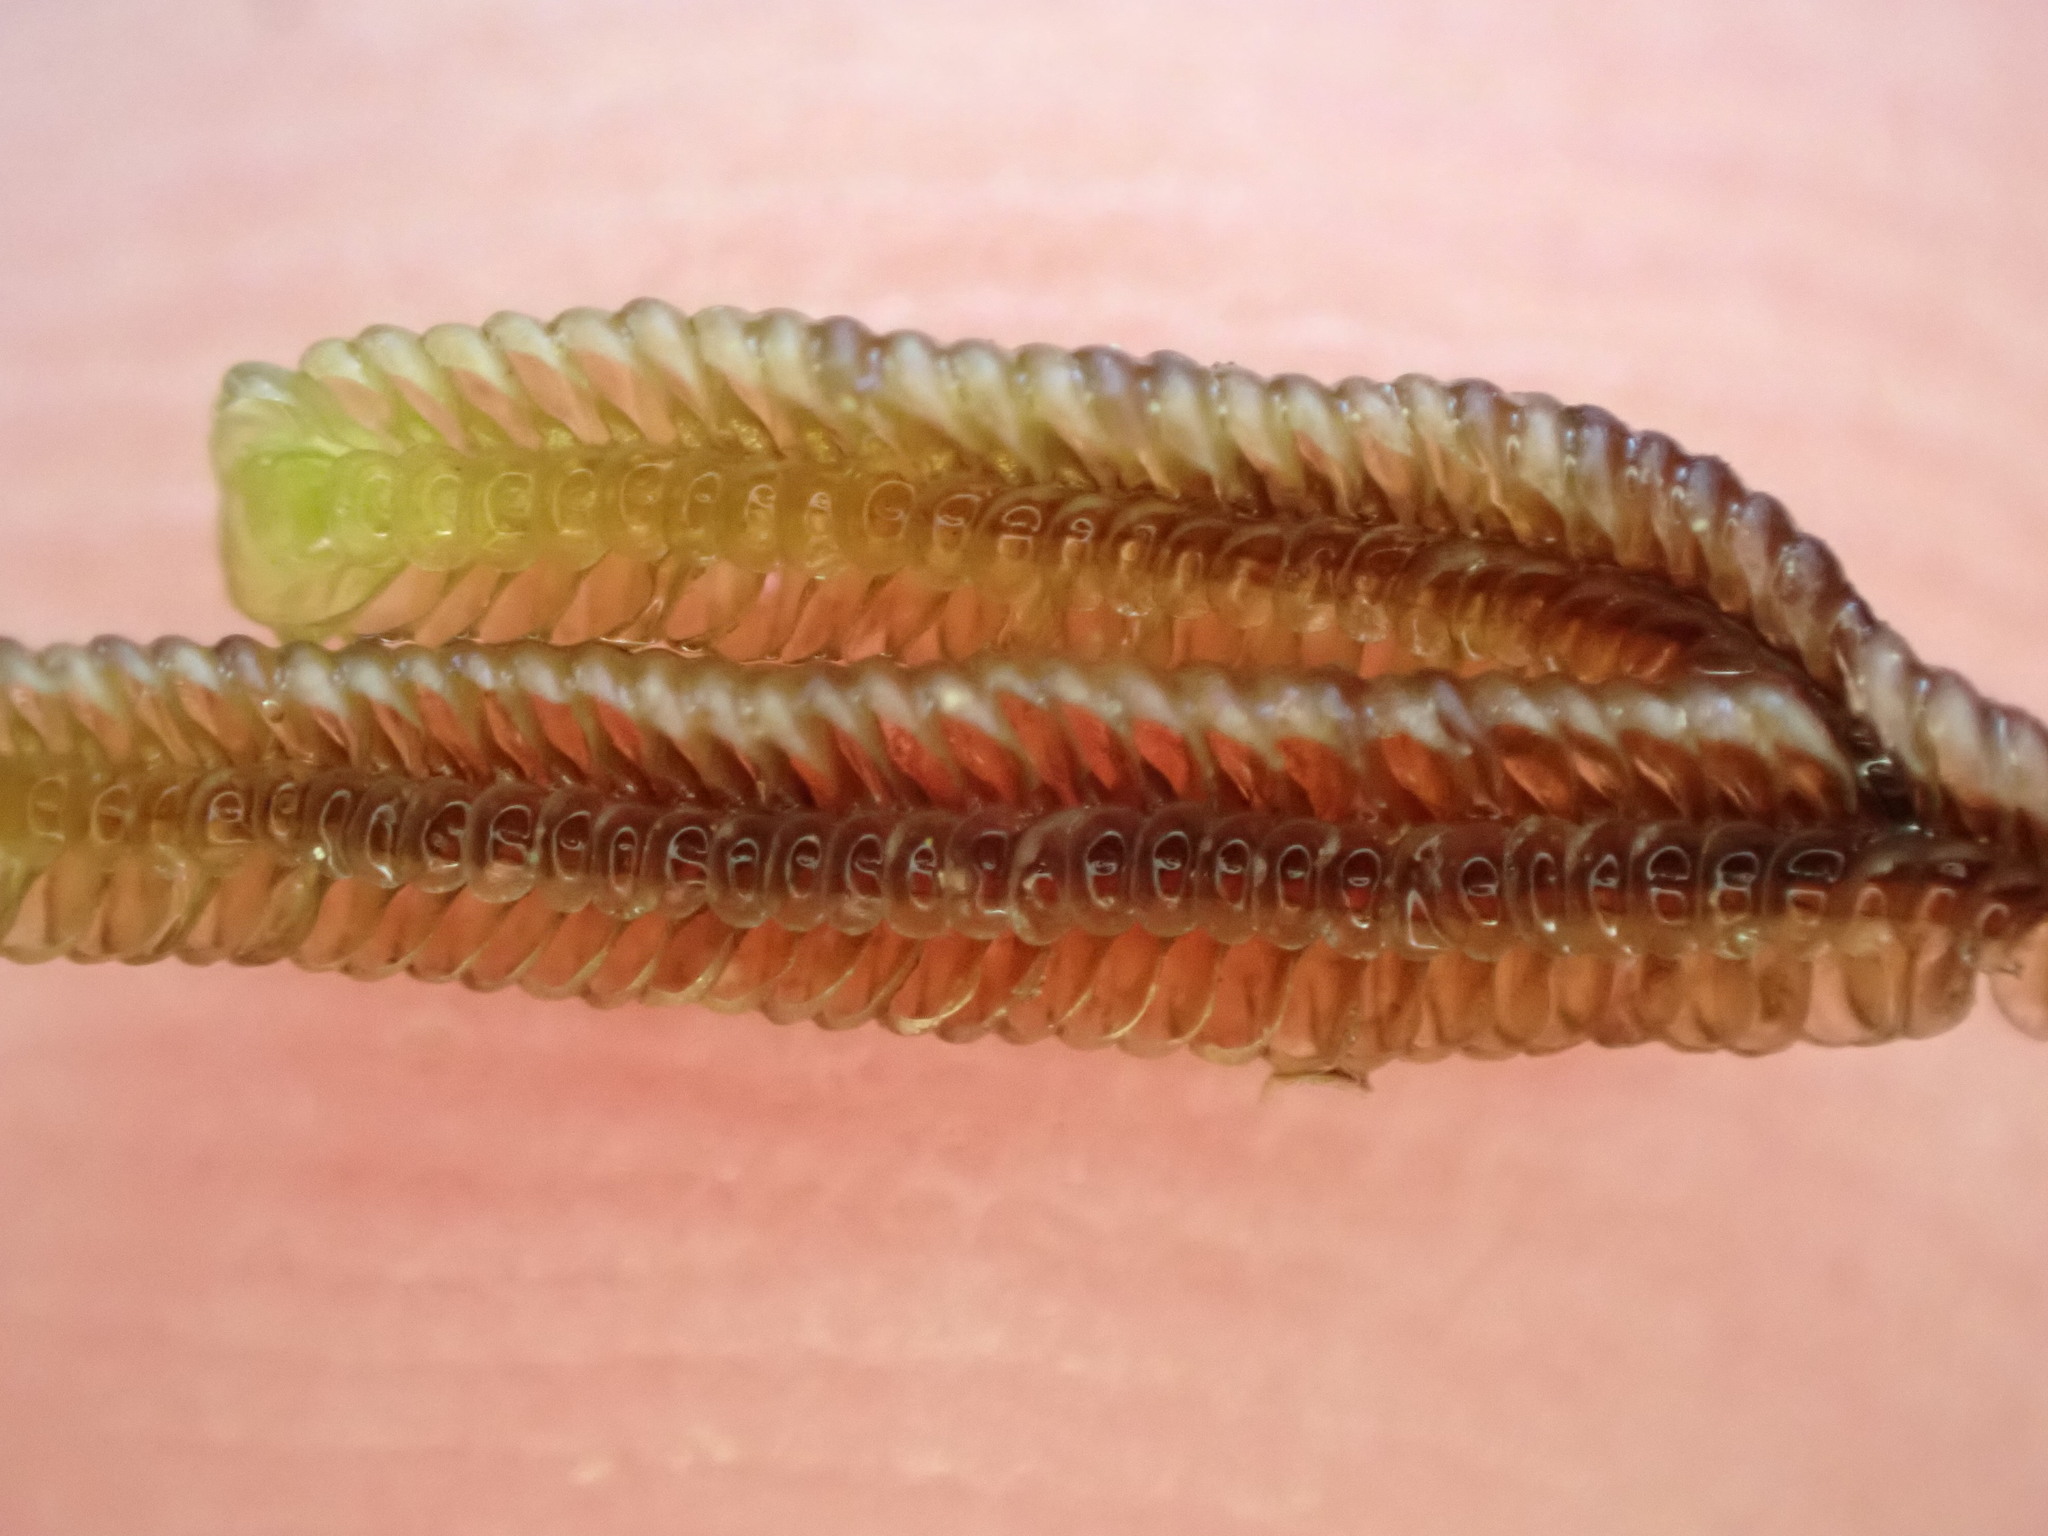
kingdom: Plantae
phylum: Marchantiophyta
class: Jungermanniopsida
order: Porellales
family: Lejeuneaceae
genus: Thysananthus
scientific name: Thysananthus anguiformis
